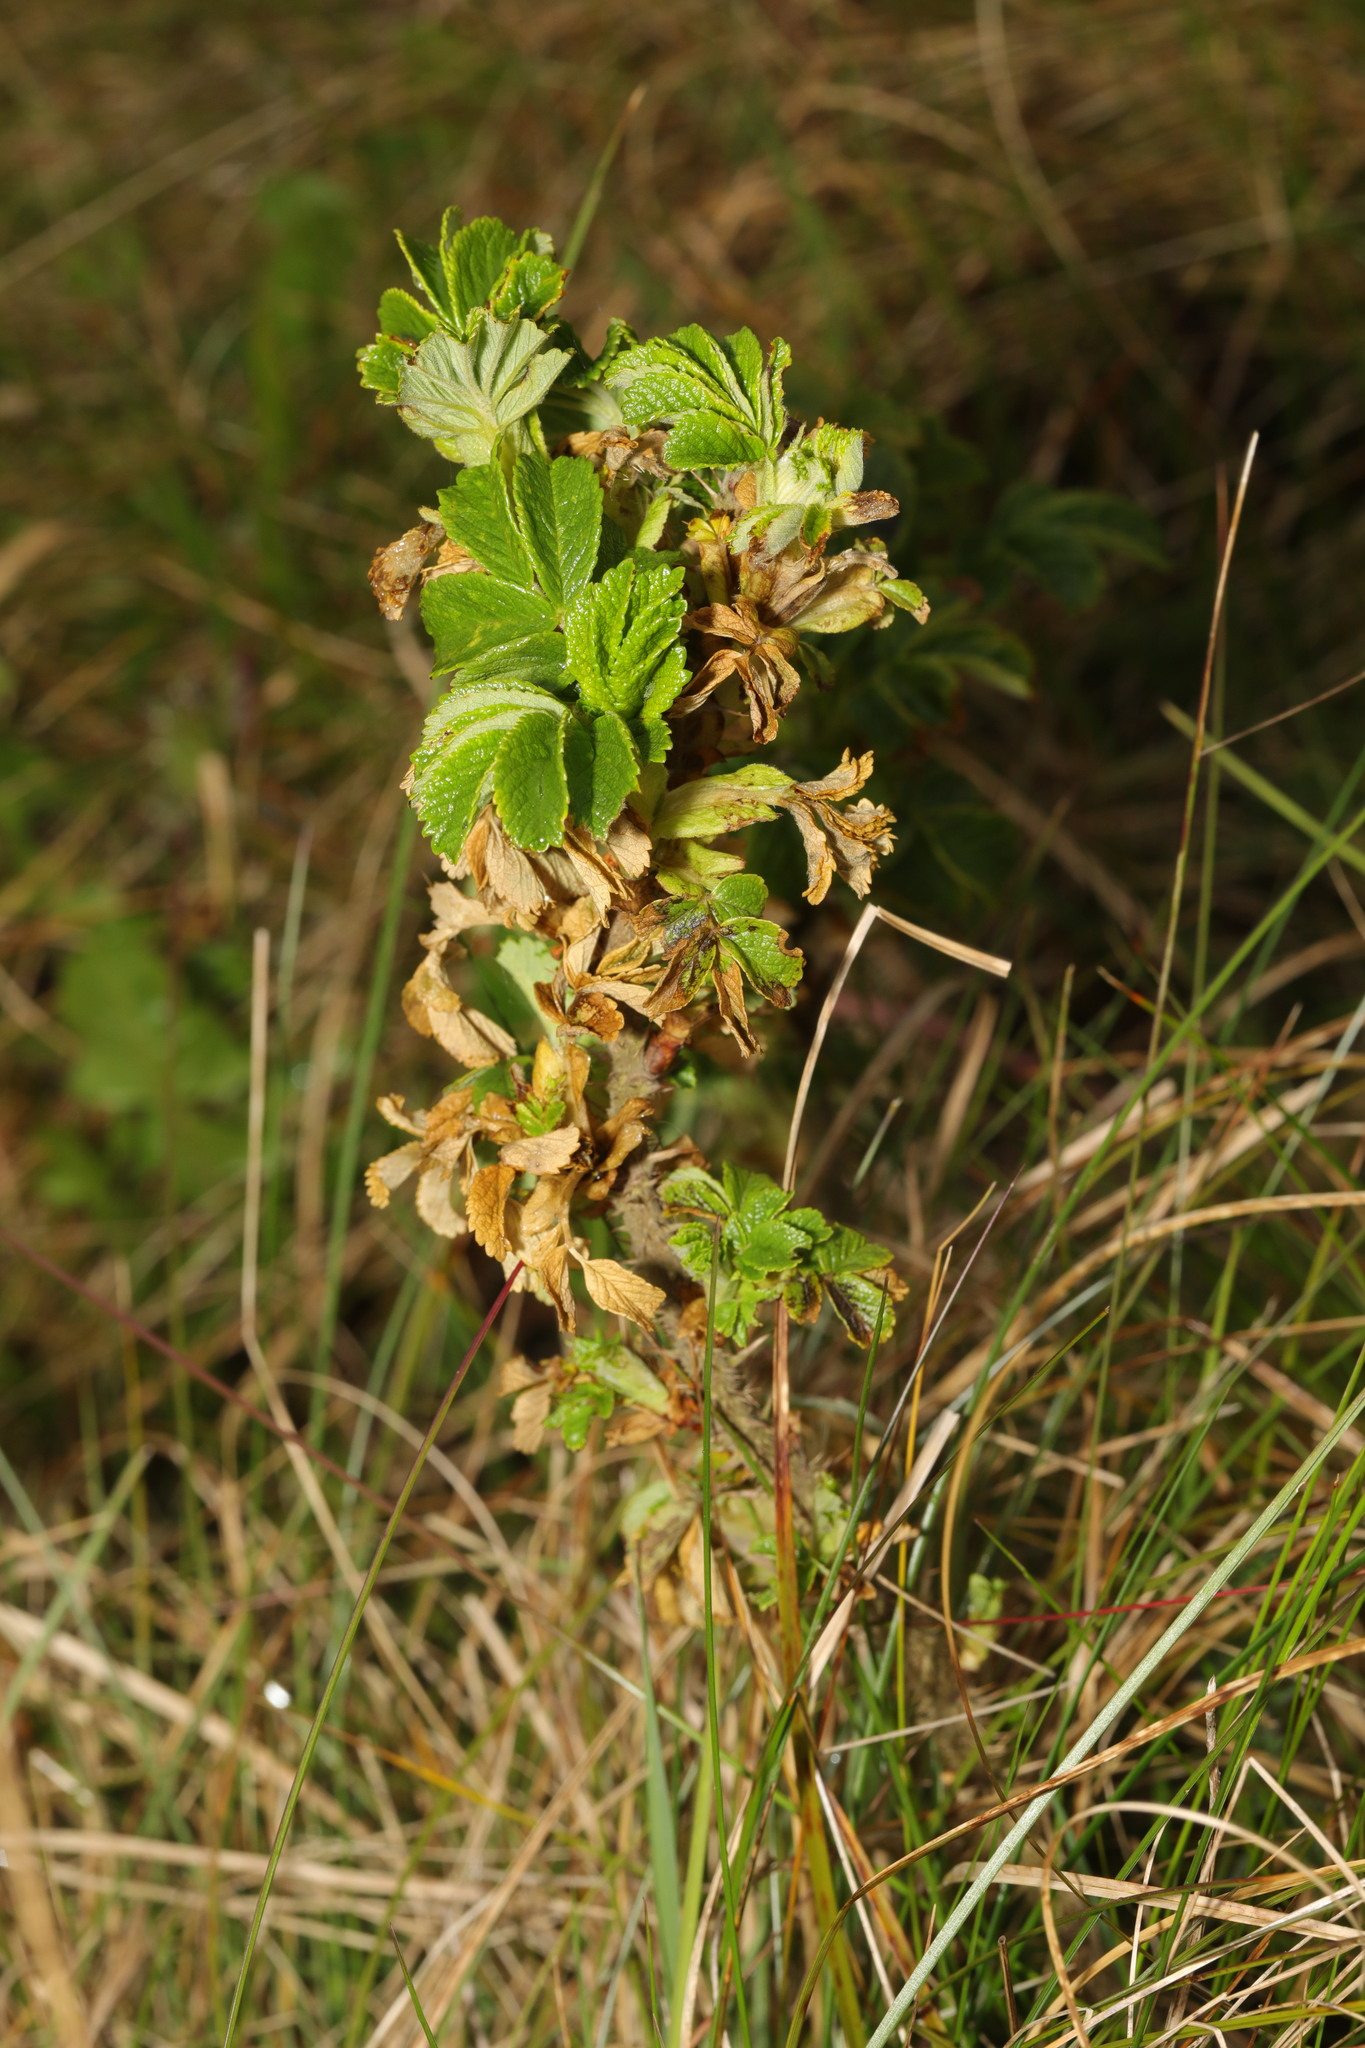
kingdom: Plantae
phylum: Tracheophyta
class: Magnoliopsida
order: Rosales
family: Rosaceae
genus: Rosa
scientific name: Rosa rugosa
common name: Japanese rose
